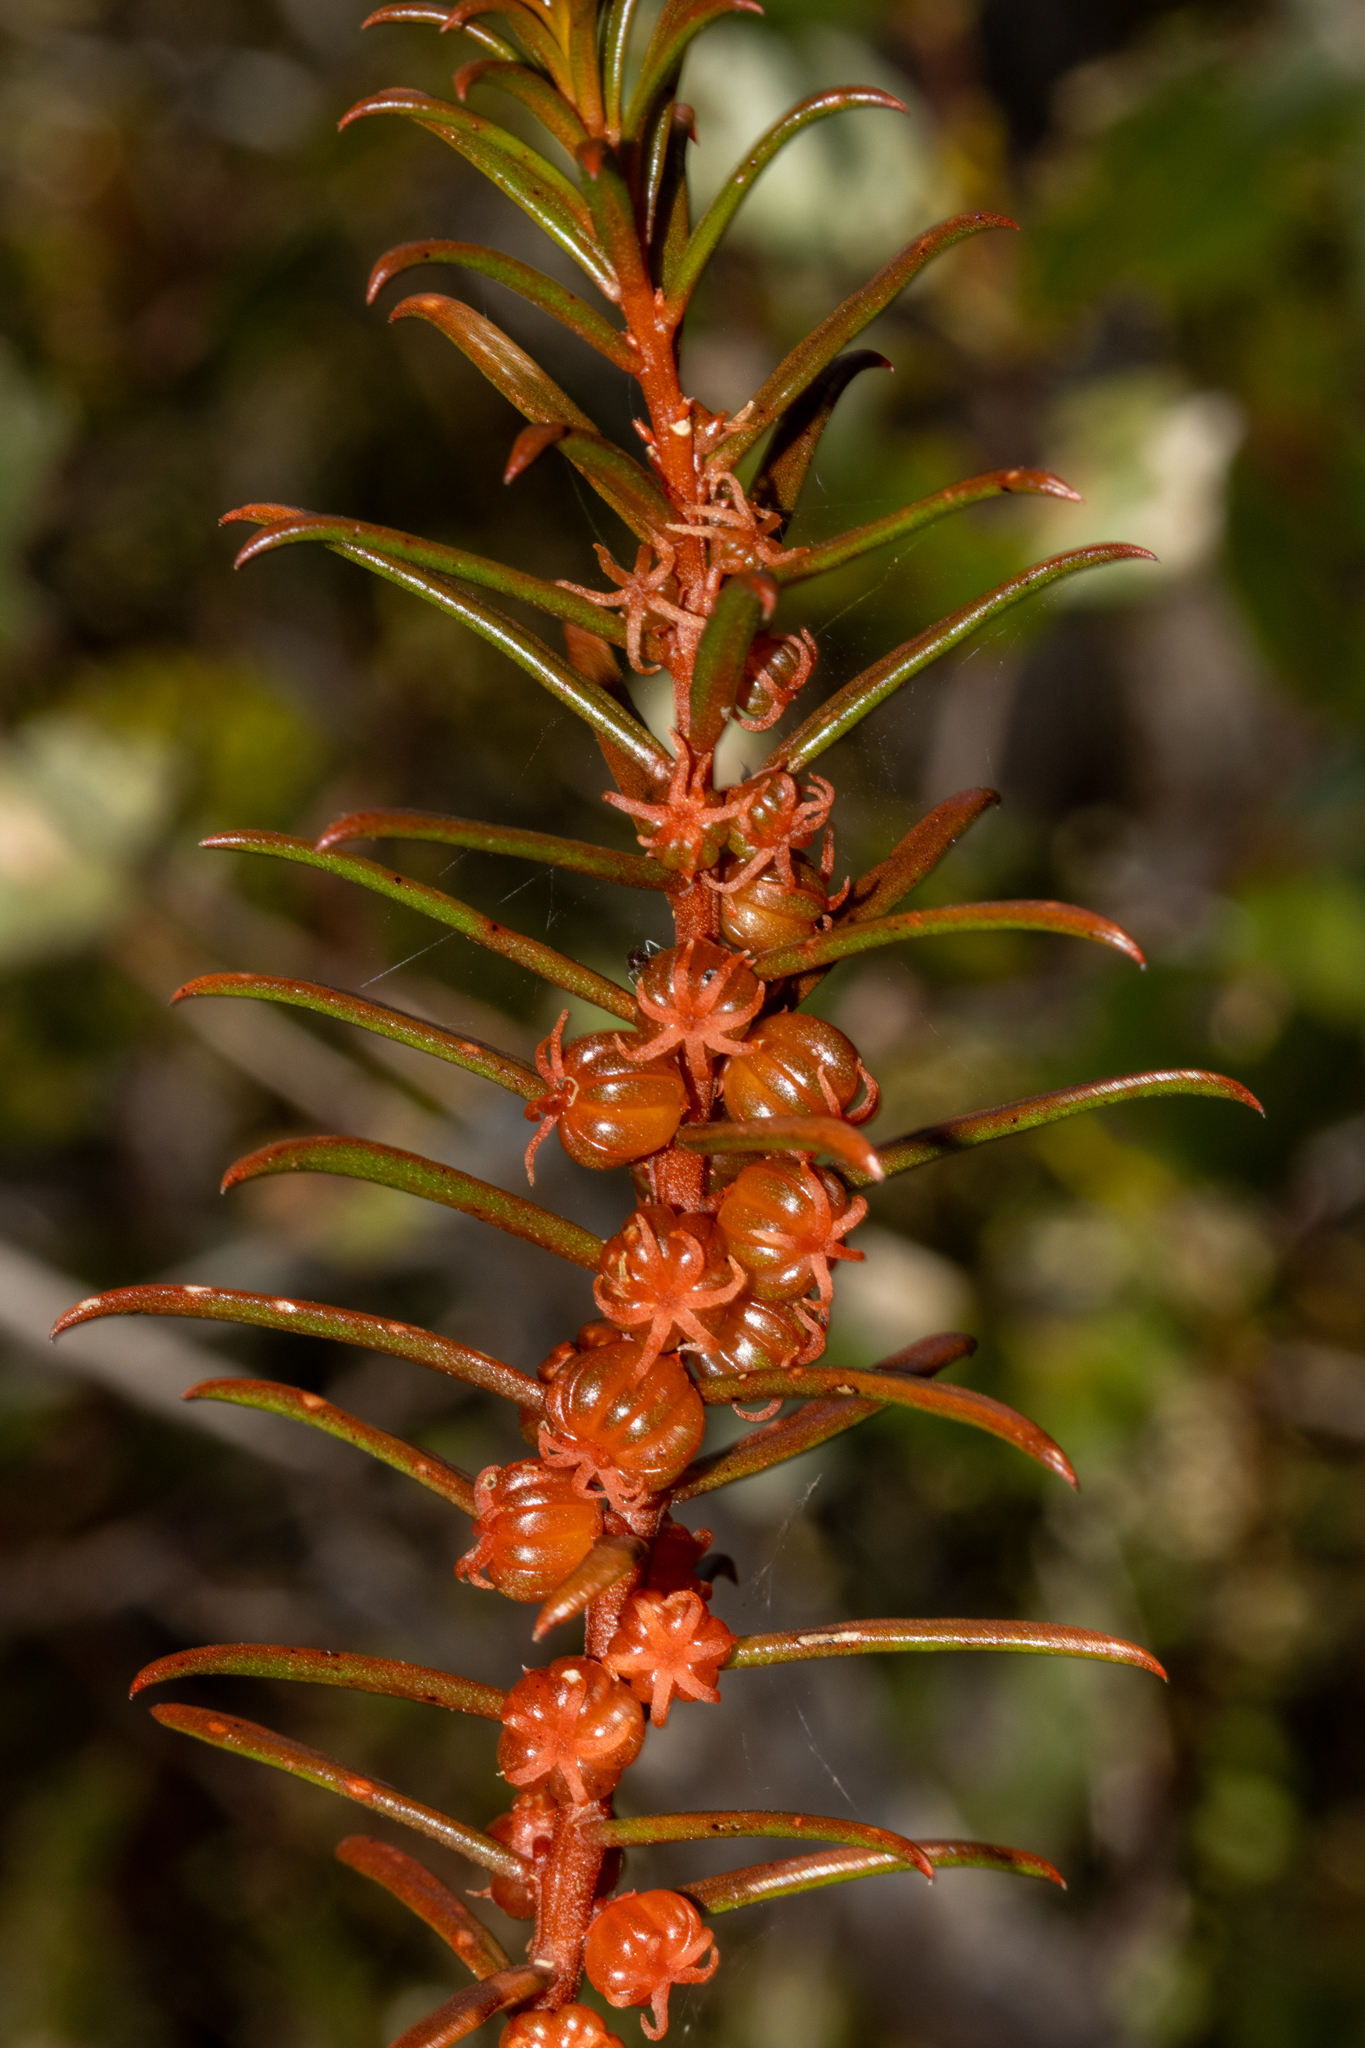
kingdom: Plantae
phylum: Tracheophyta
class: Magnoliopsida
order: Brassicales
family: Gyrostemonaceae
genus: Gyrostemon
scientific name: Gyrostemon australasicus
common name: Wheelfruit
